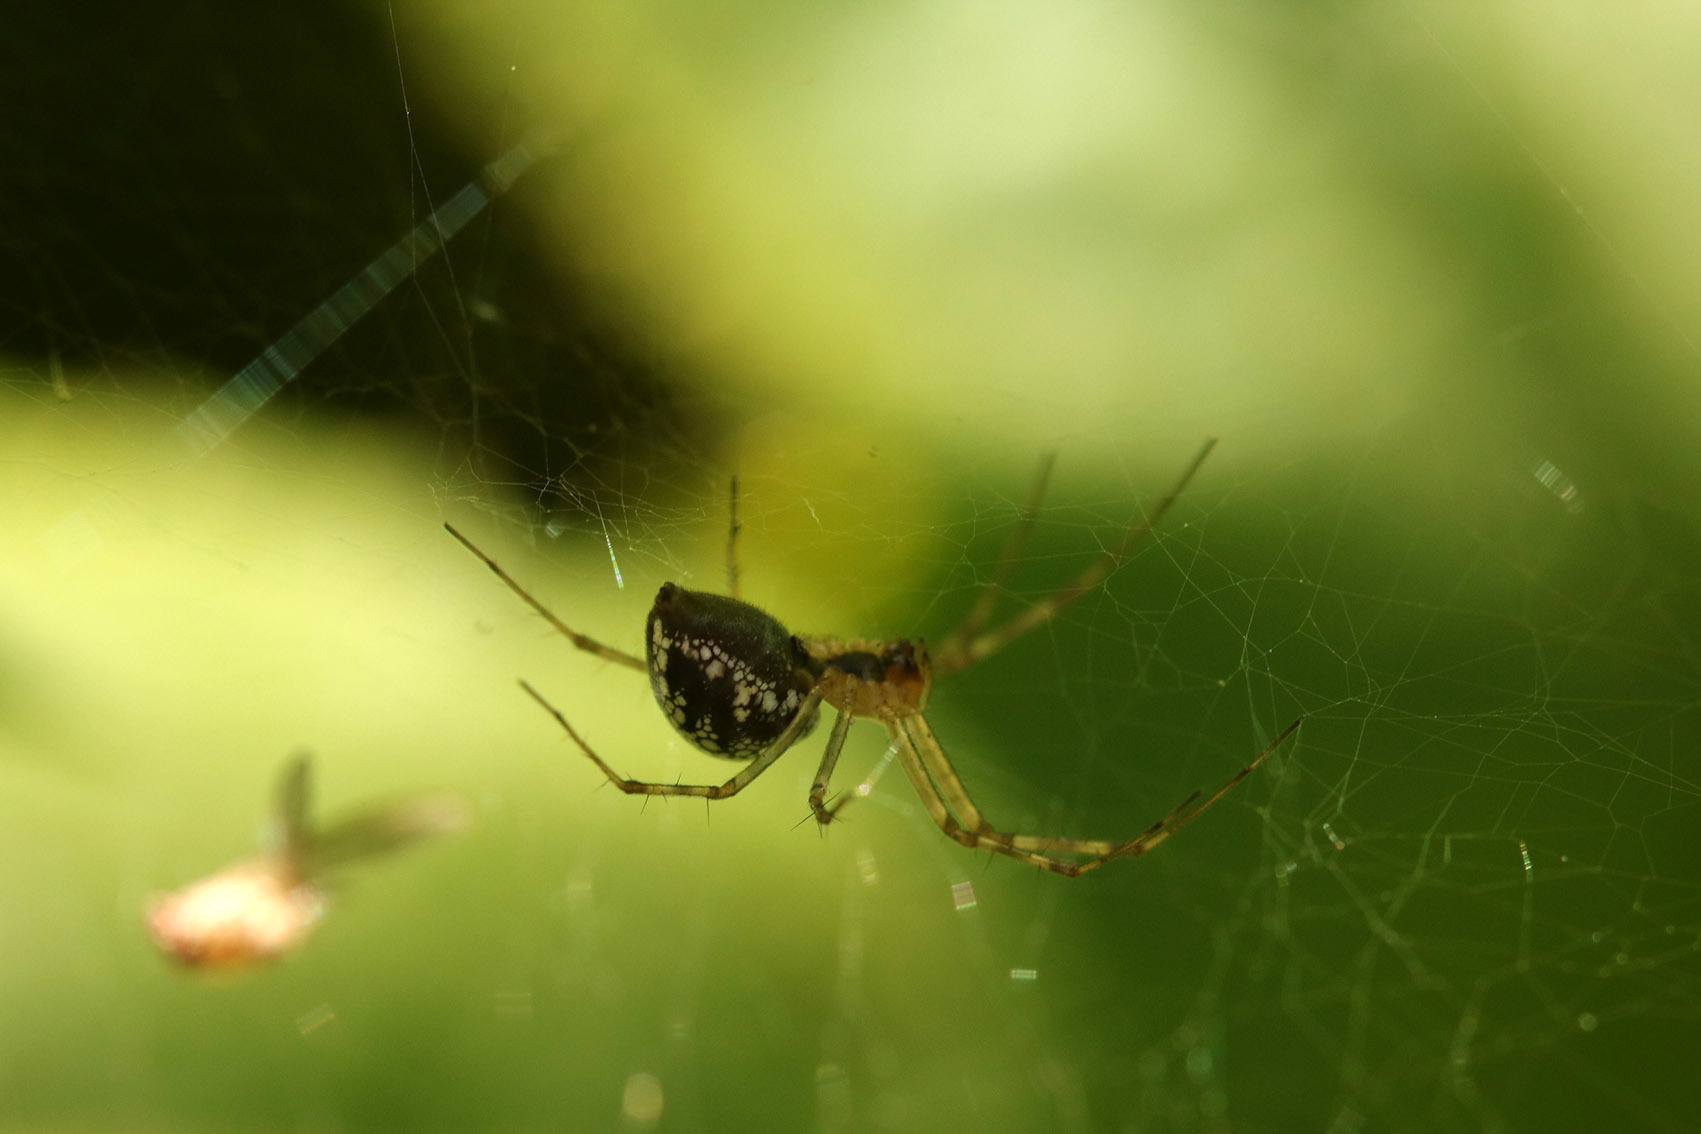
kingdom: Animalia
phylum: Arthropoda
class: Arachnida
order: Araneae
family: Linyphiidae
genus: Dubiaranea
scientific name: Dubiaranea
